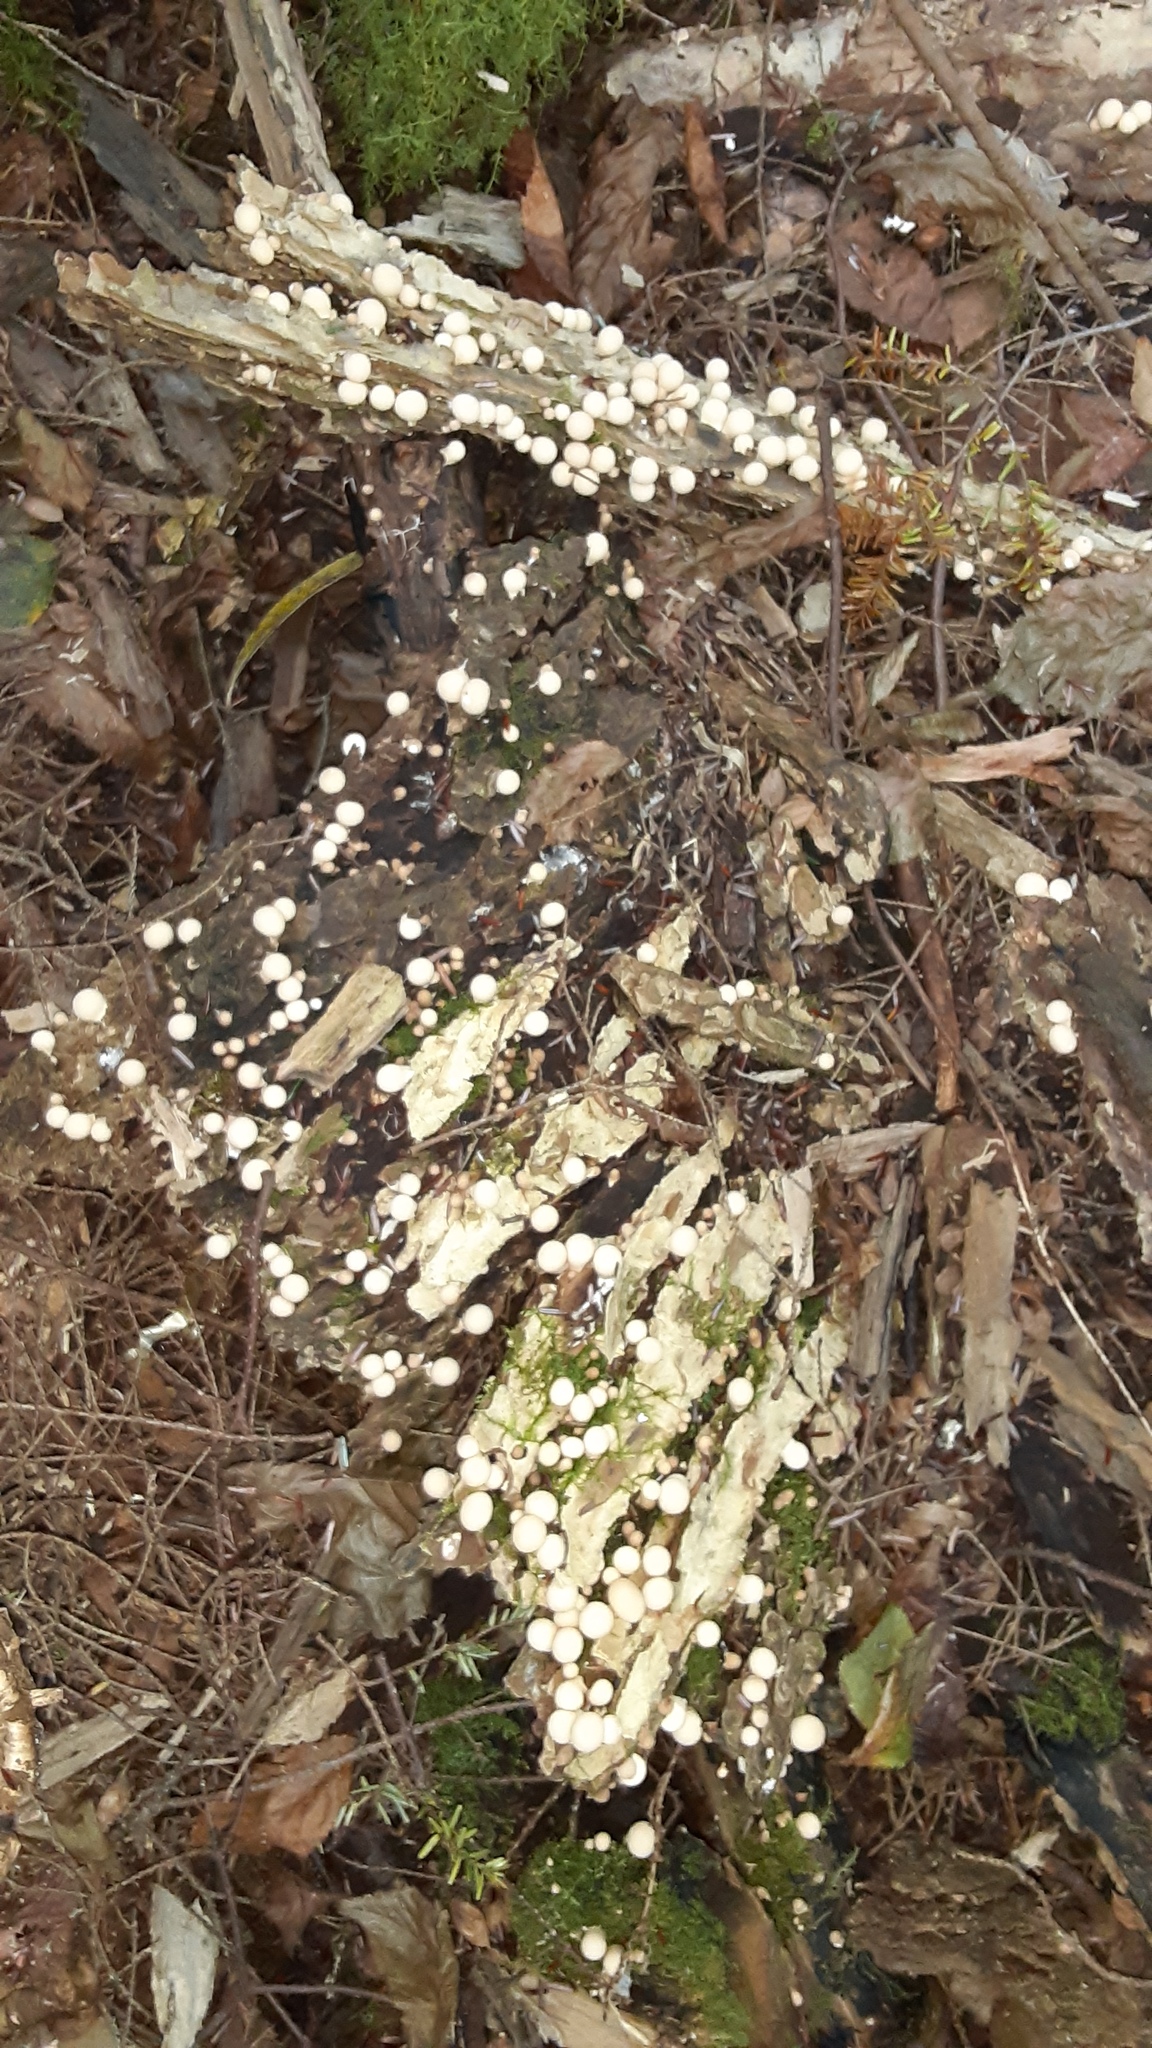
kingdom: Fungi
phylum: Basidiomycota
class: Agaricomycetes
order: Agaricales
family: Lycoperdaceae
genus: Apioperdon
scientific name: Apioperdon pyriforme
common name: Pear-shaped puffball
